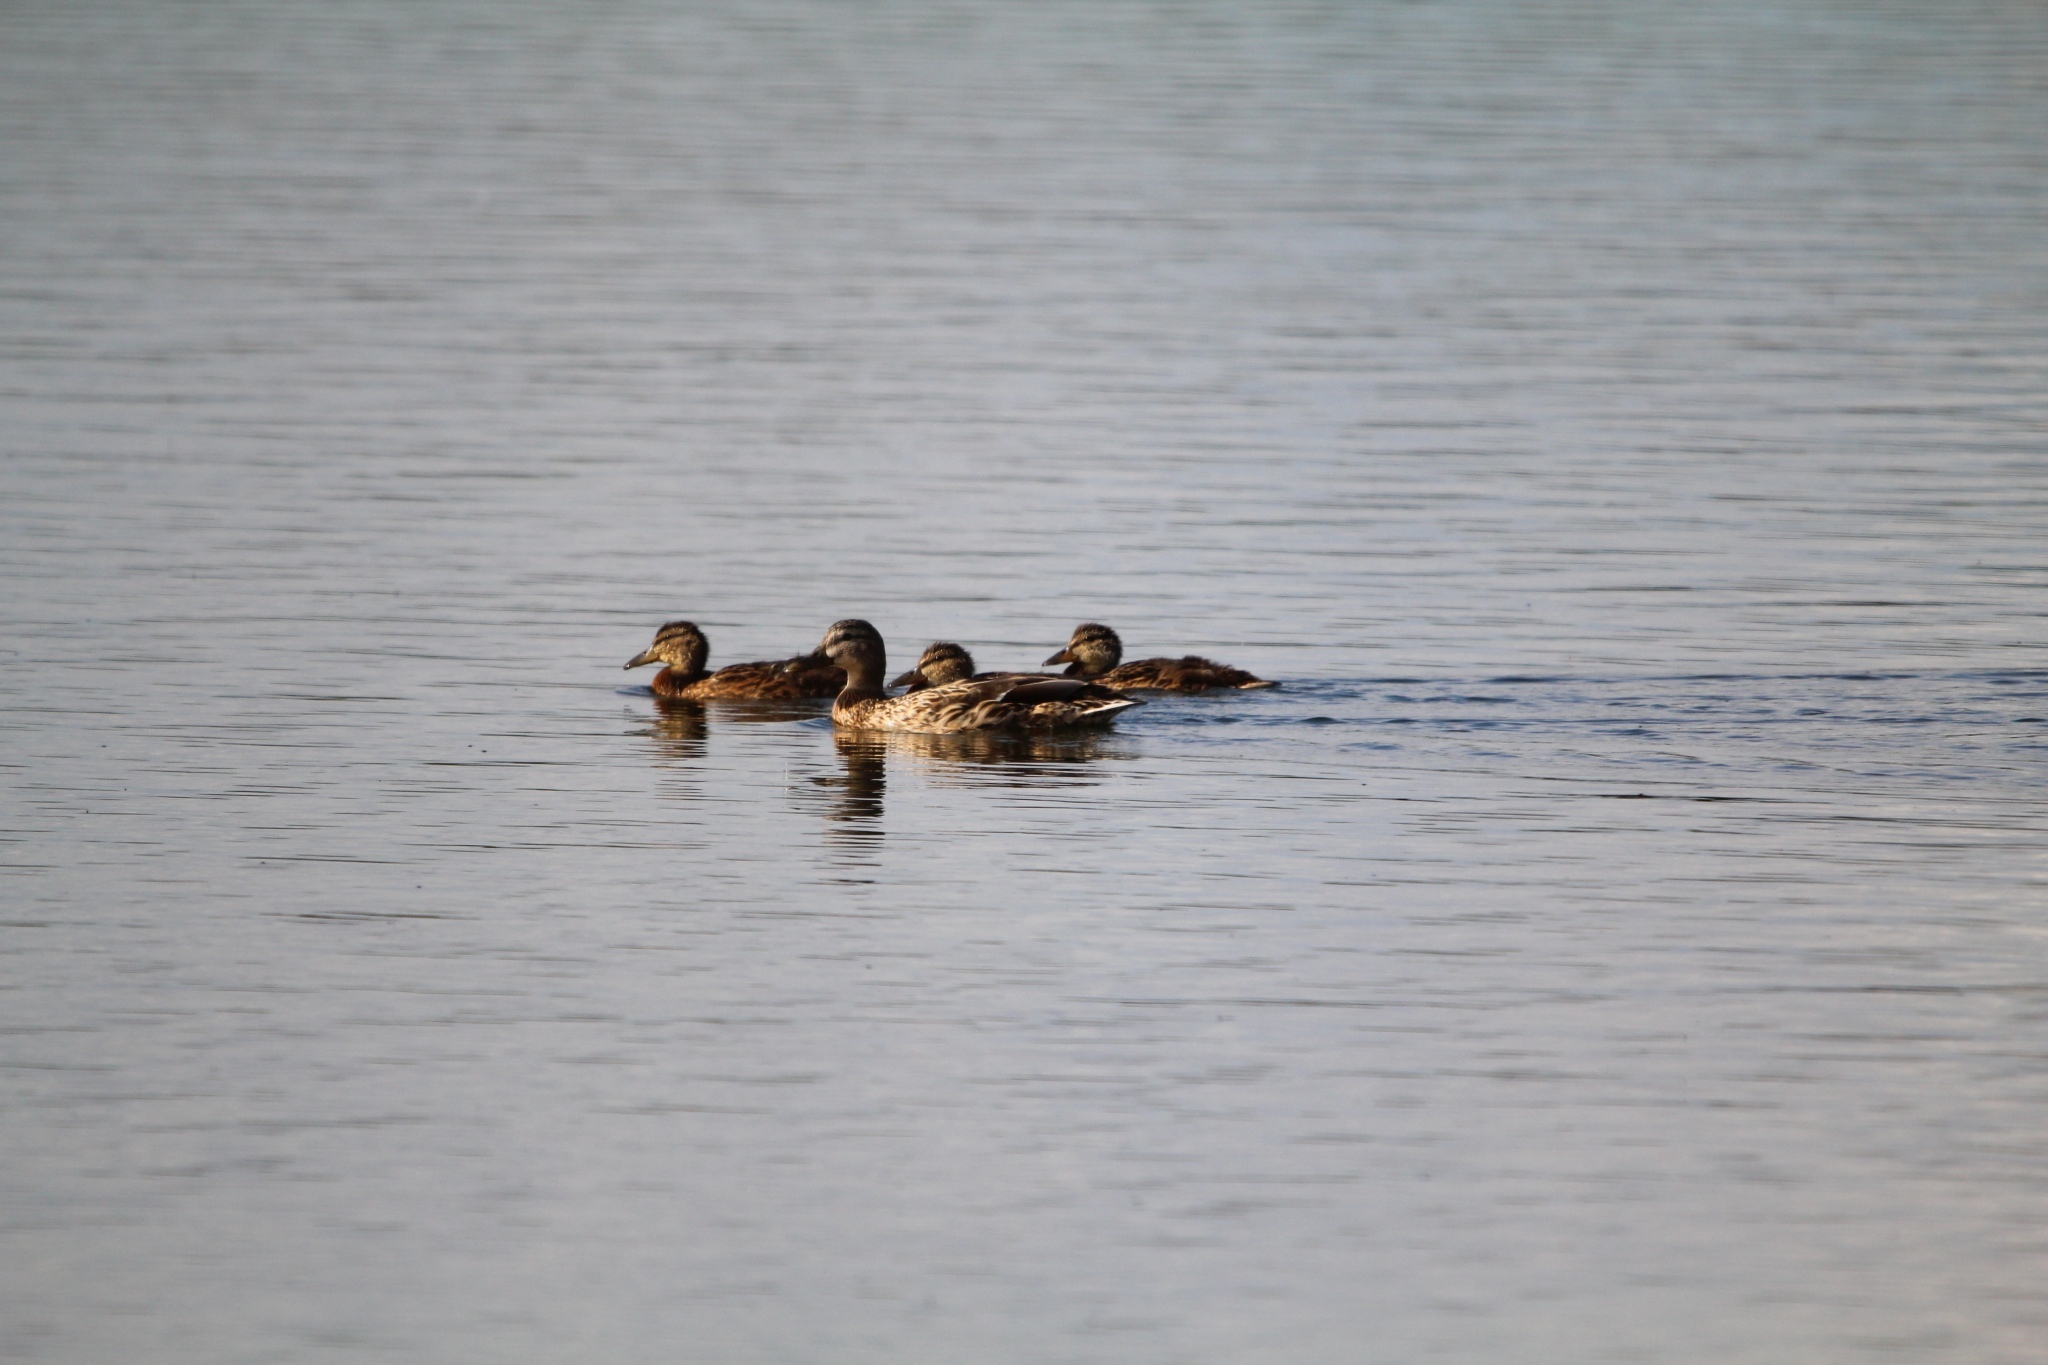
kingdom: Animalia
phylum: Chordata
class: Aves
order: Anseriformes
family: Anatidae
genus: Anas
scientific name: Anas platyrhynchos
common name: Mallard
